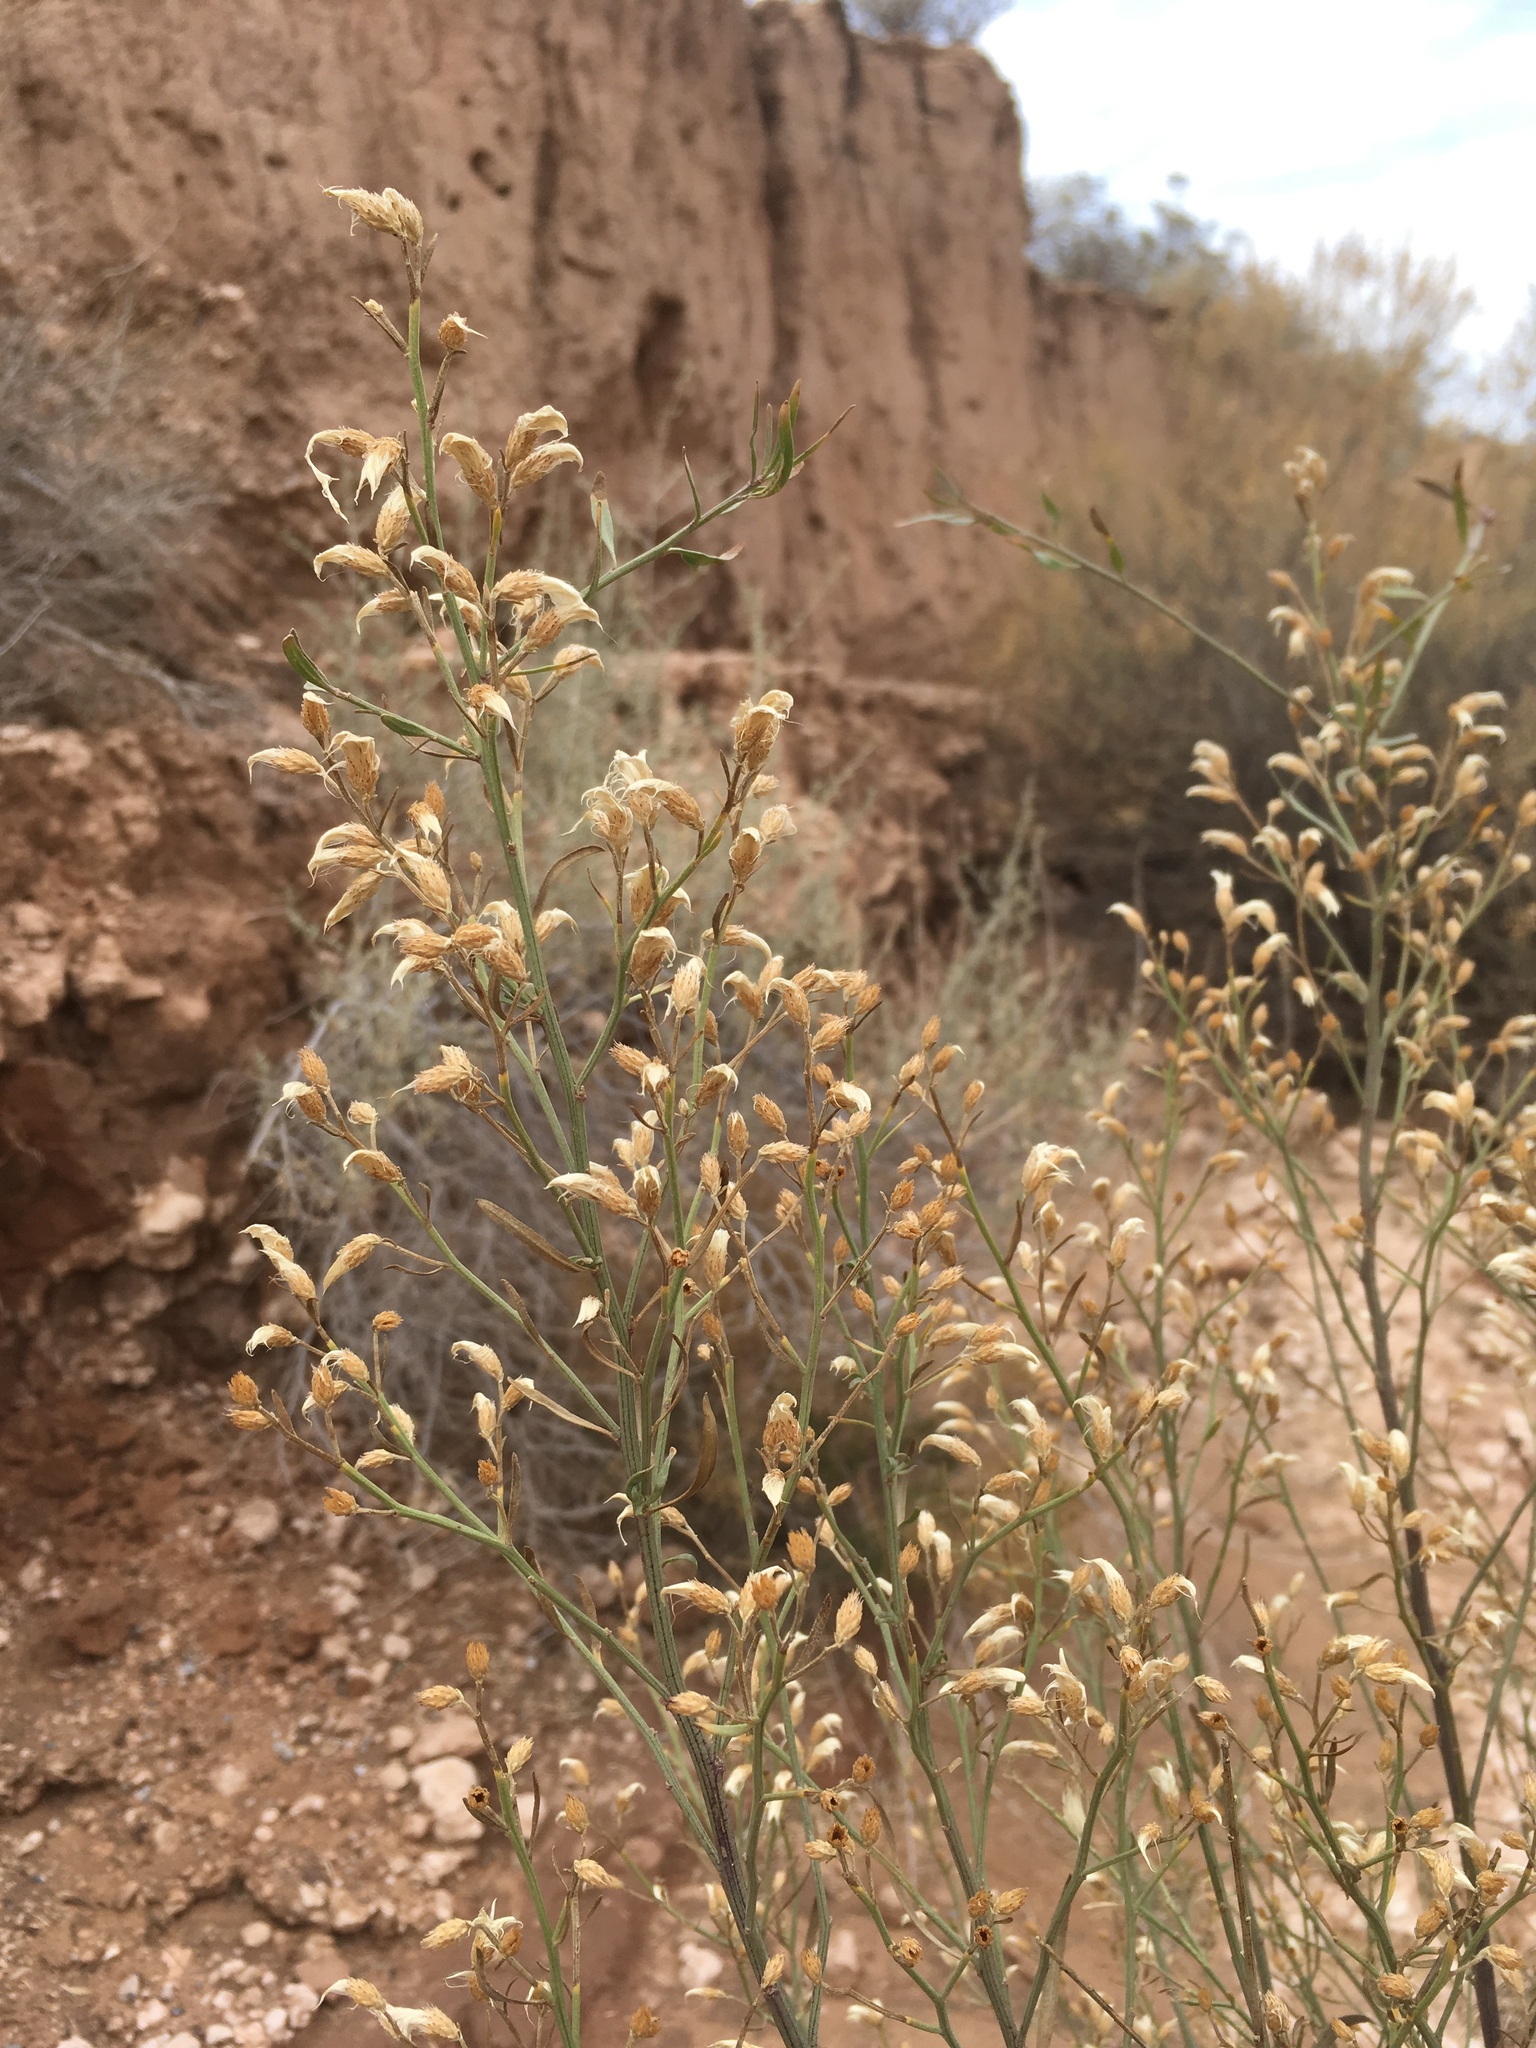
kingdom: Plantae
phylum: Tracheophyta
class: Magnoliopsida
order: Asterales
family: Asteraceae
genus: Baccharis
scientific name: Baccharis salicina
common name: Willow baccharis
